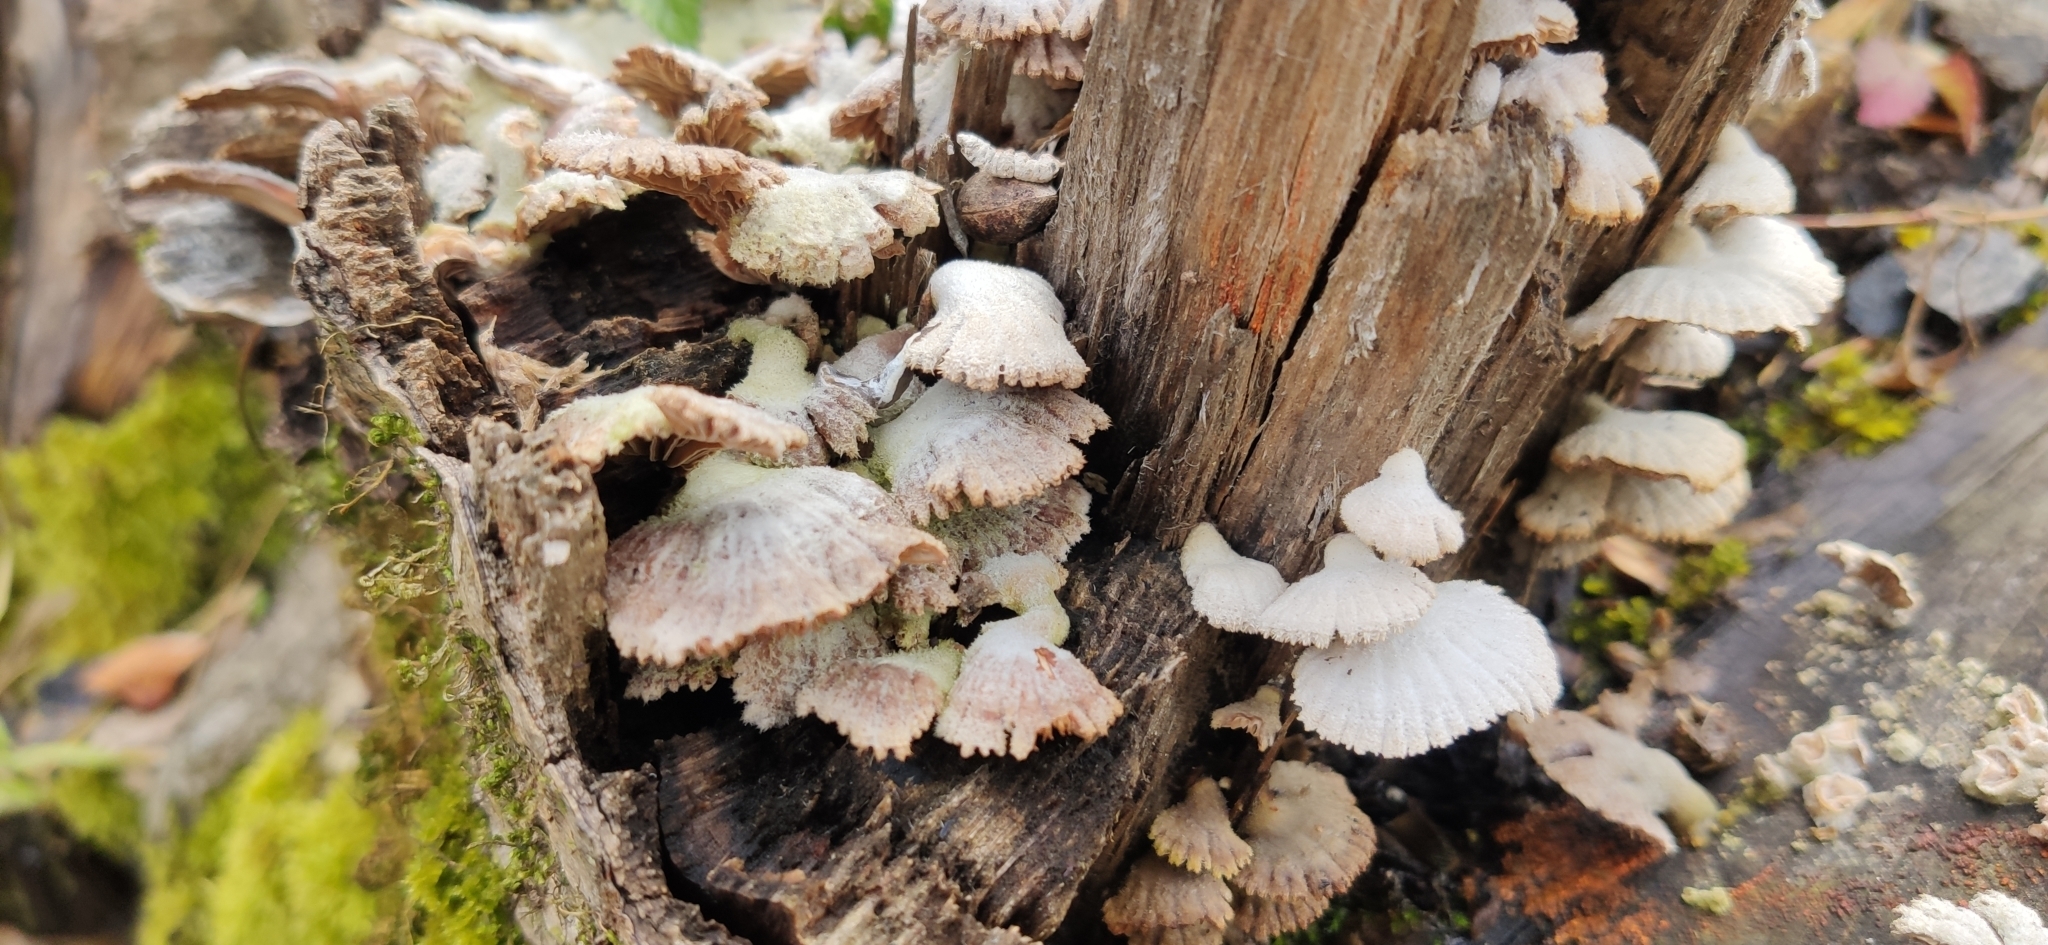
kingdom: Fungi
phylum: Basidiomycota
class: Agaricomycetes
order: Agaricales
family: Schizophyllaceae
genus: Schizophyllum
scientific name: Schizophyllum commune
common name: Common porecrust
